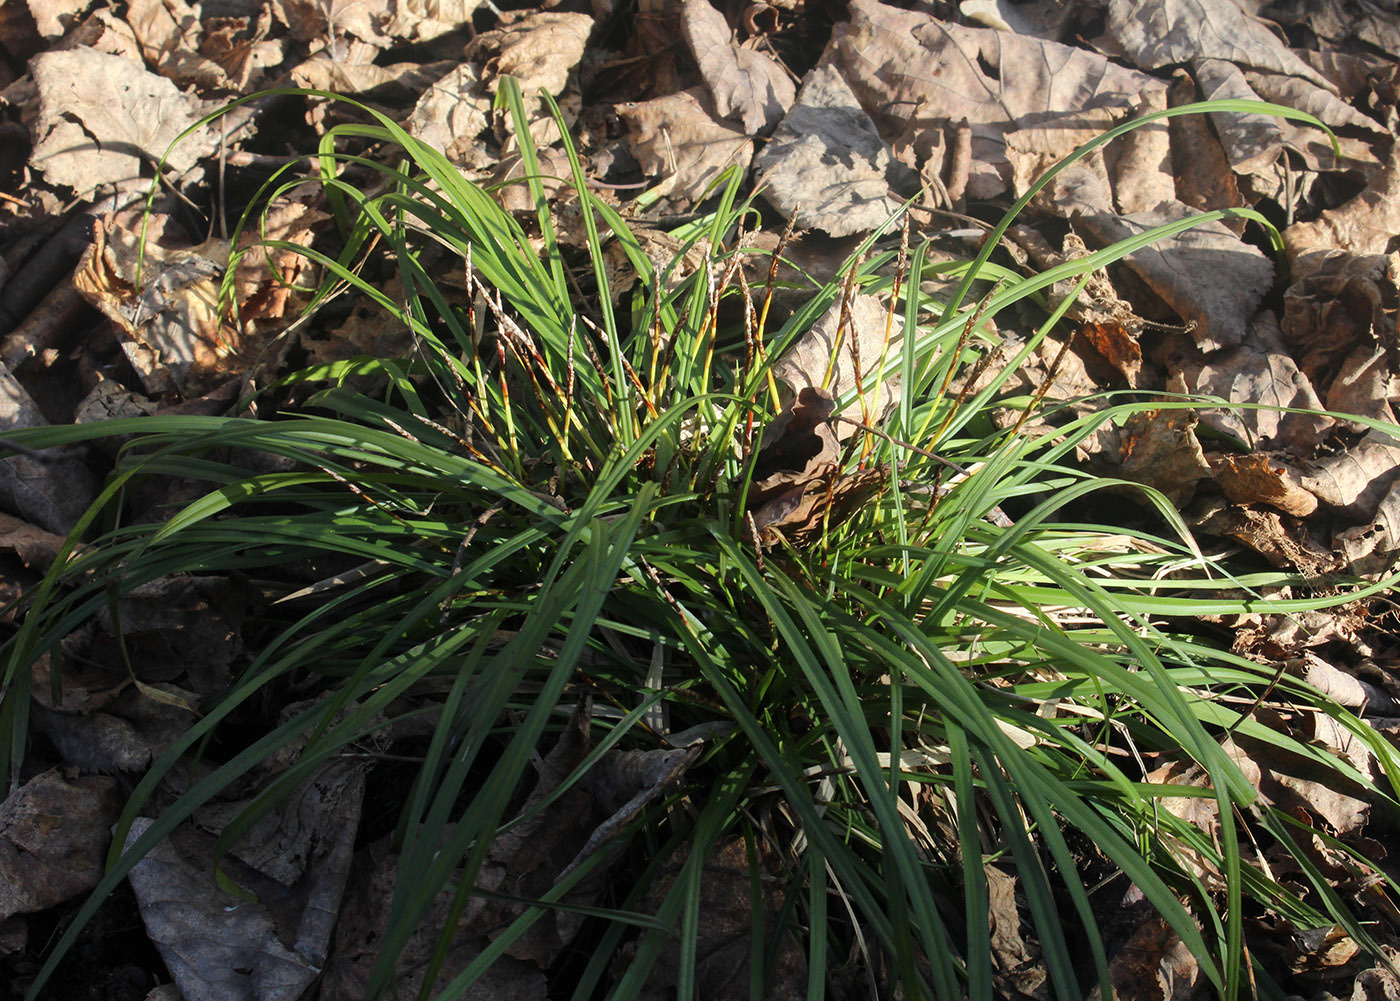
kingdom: Plantae
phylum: Tracheophyta
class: Liliopsida
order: Poales
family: Cyperaceae
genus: Carex
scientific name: Carex digitata
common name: Fingered sedge
